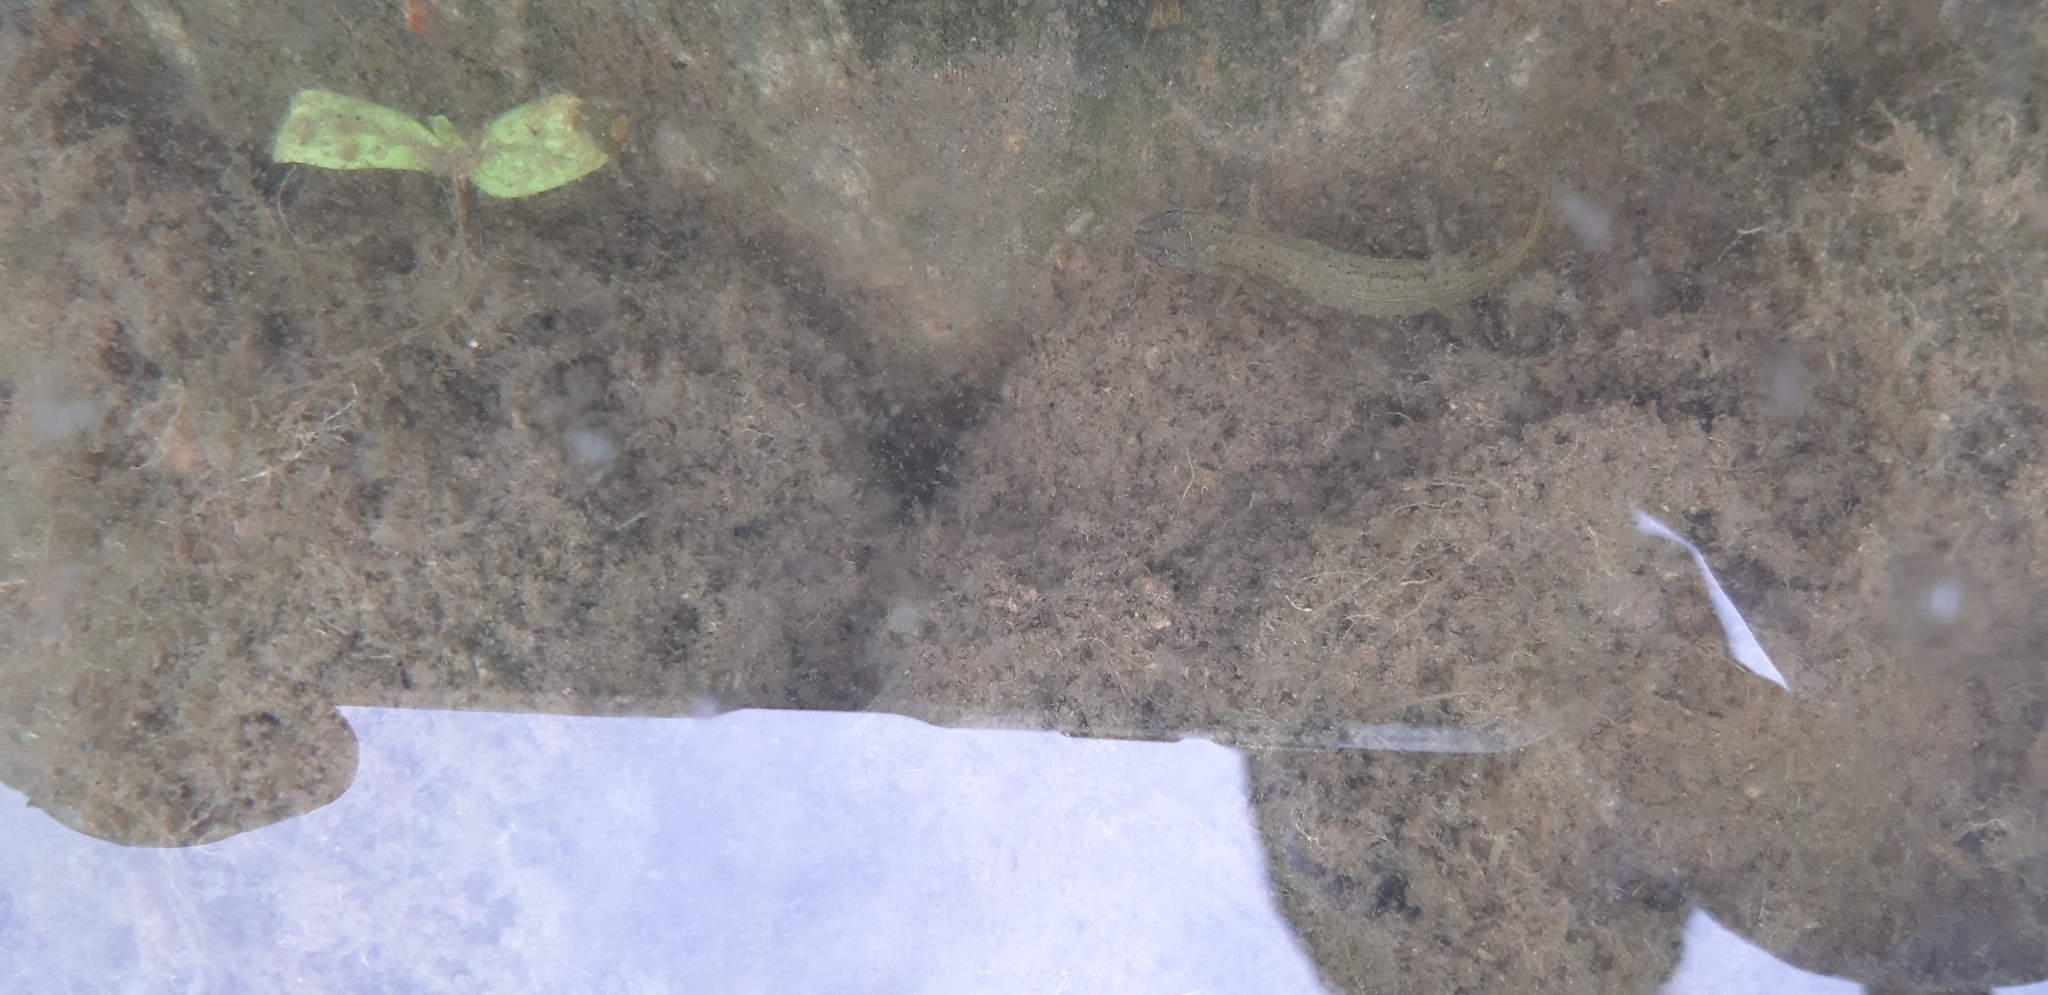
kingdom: Animalia
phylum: Chordata
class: Amphibia
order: Caudata
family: Salamandridae
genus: Lissotriton
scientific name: Lissotriton vulgaris
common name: Smooth newt
